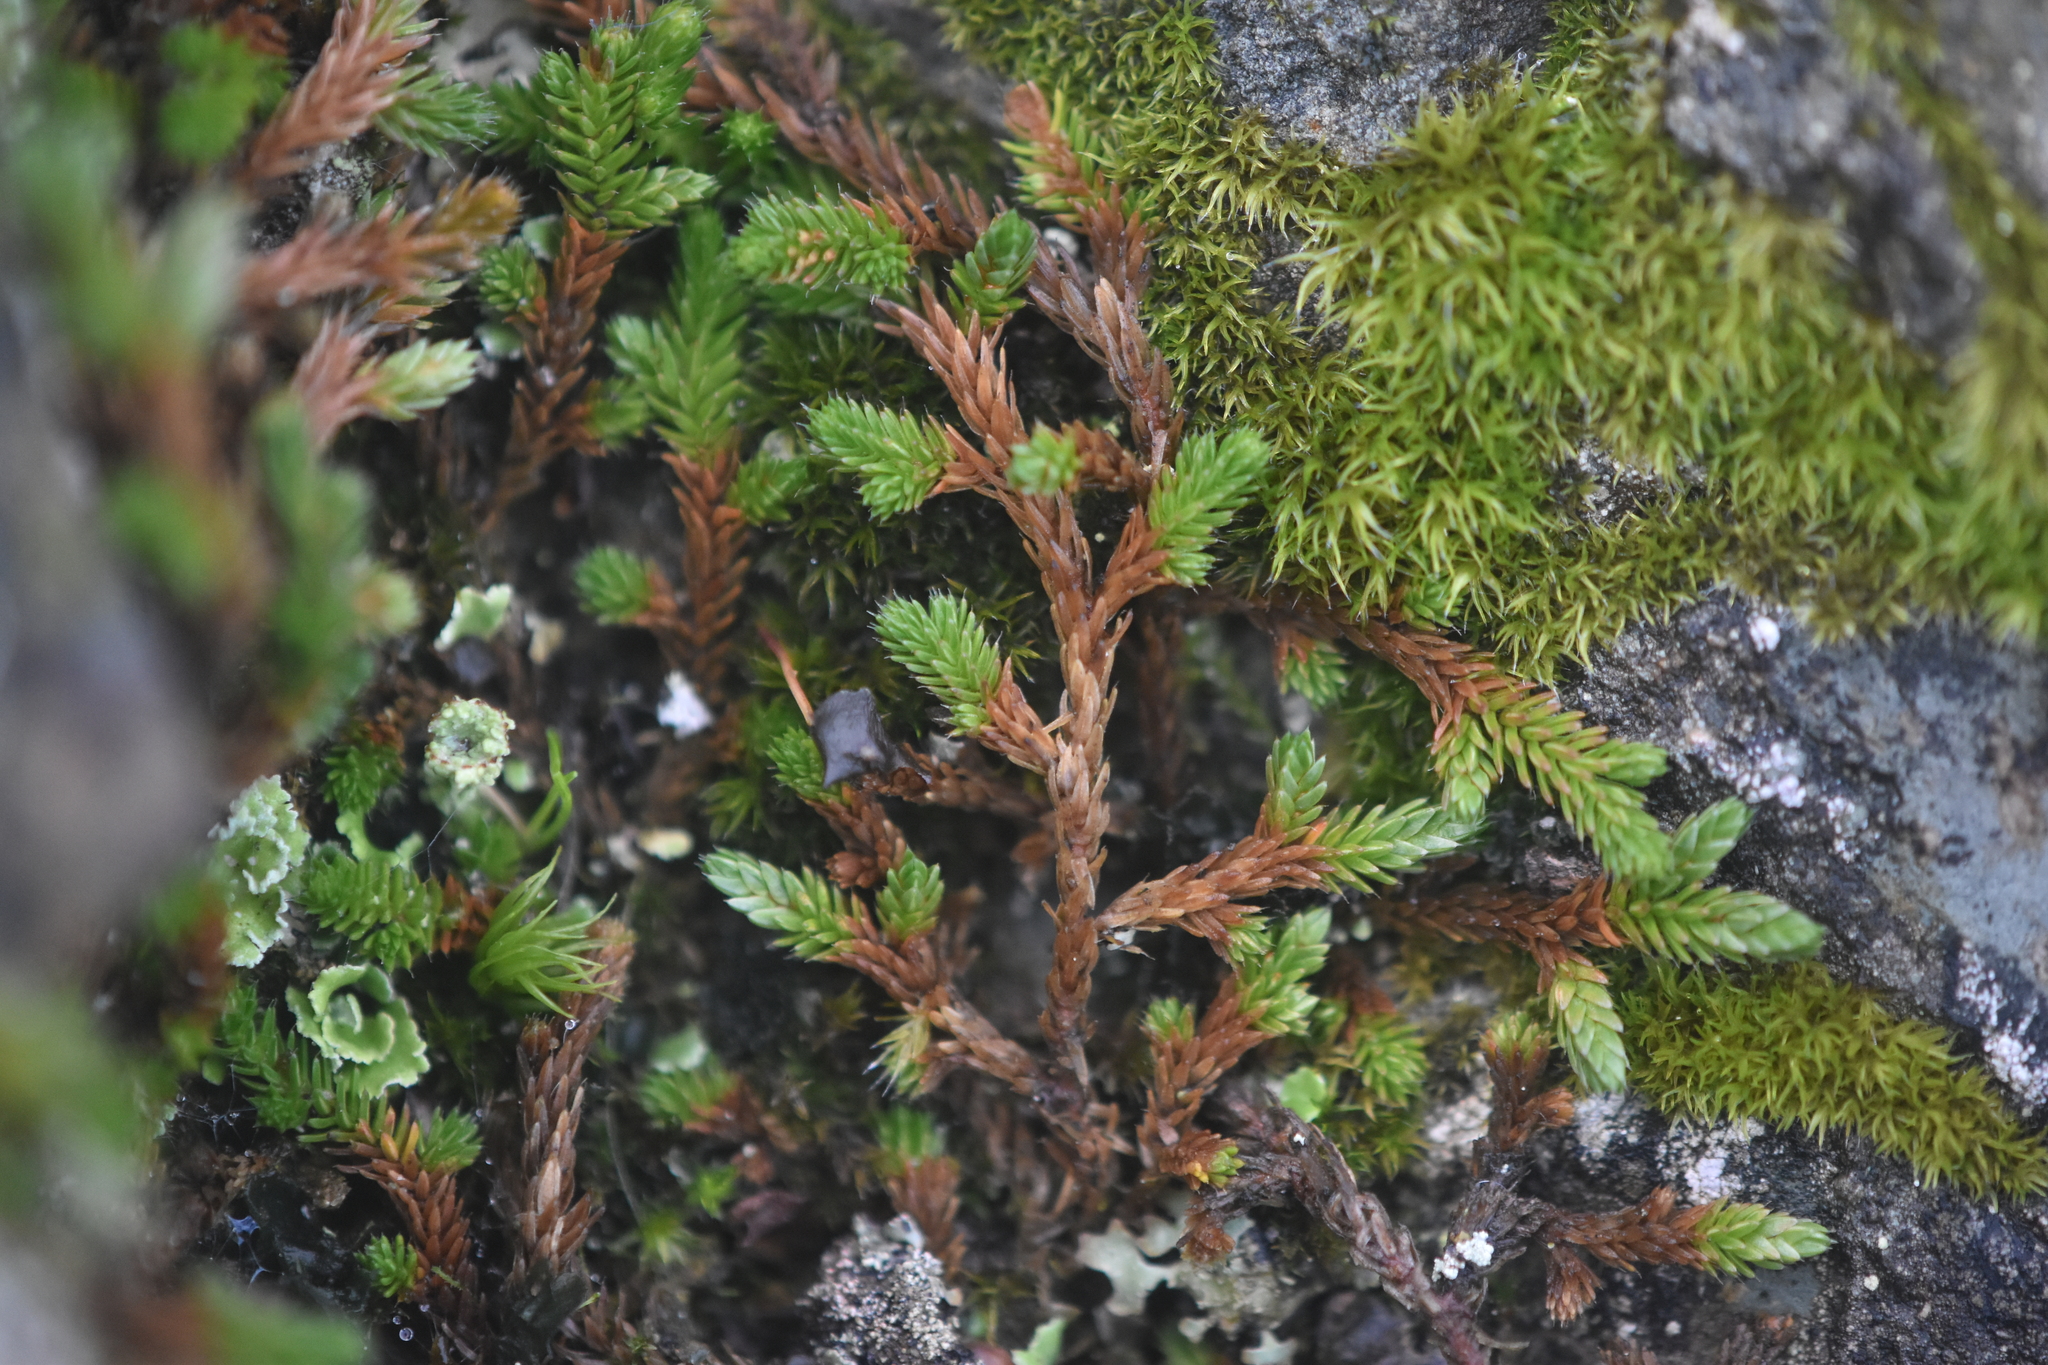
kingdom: Plantae
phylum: Tracheophyta
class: Lycopodiopsida
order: Selaginellales
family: Selaginellaceae
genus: Selaginella
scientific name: Selaginella wallacei
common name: Wallace's selaginella
